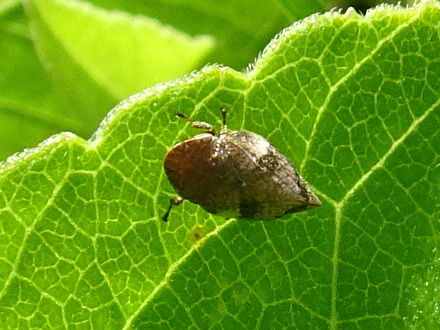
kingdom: Animalia
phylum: Arthropoda
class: Insecta
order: Hemiptera
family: Aphrophoridae
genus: Lepyronia
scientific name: Lepyronia quadrangularis
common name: Diamond-backed spittlebug
